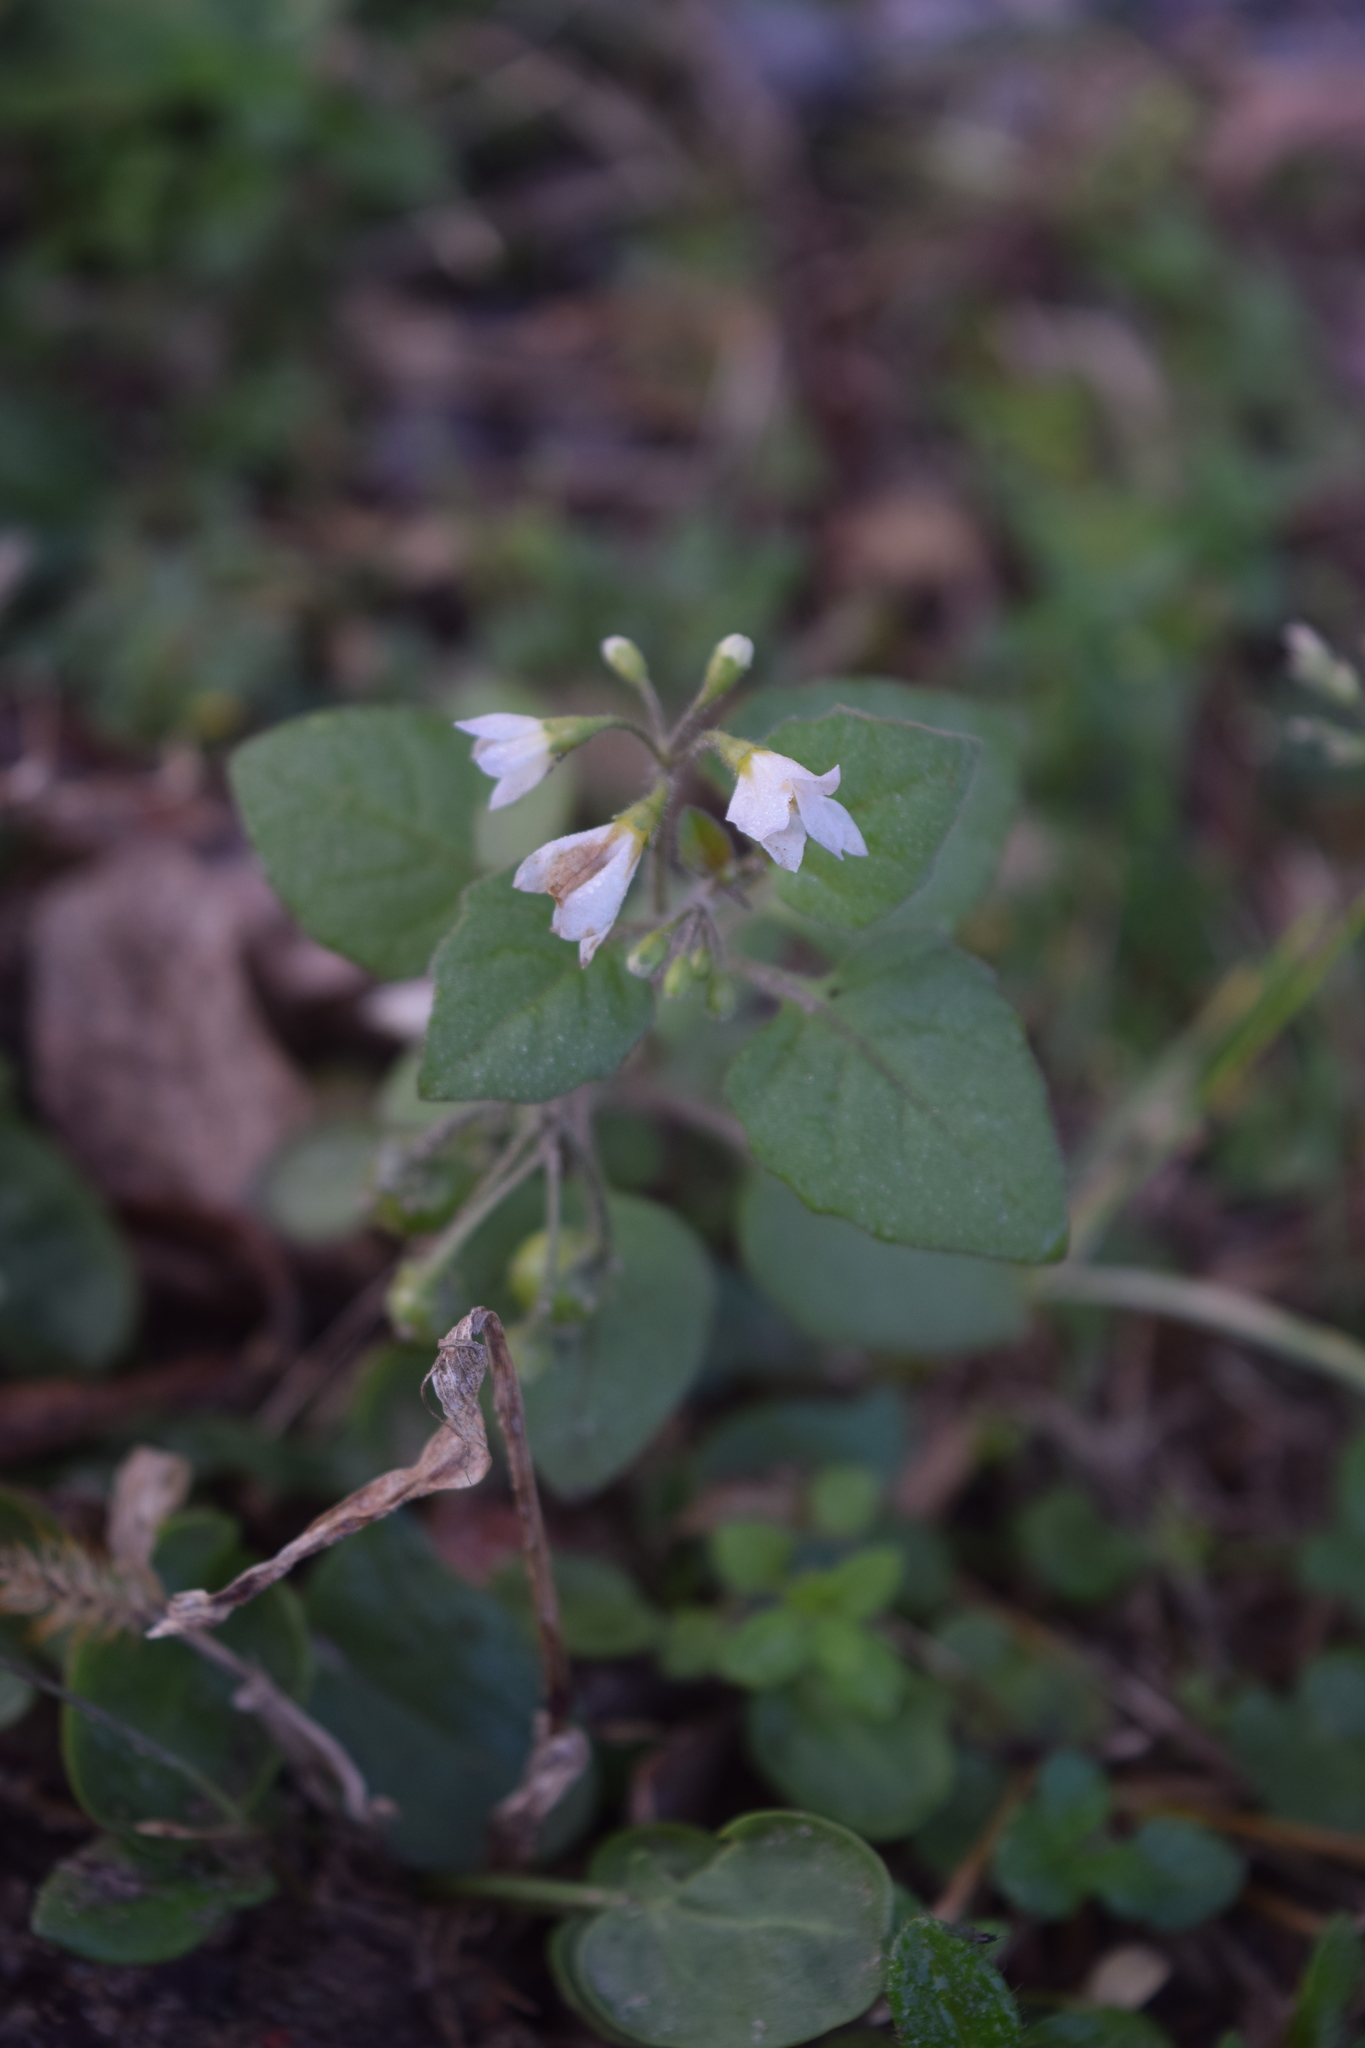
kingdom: Plantae
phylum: Tracheophyta
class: Magnoliopsida
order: Solanales
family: Solanaceae
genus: Solanum
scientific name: Solanum nigrum
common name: Black nightshade
